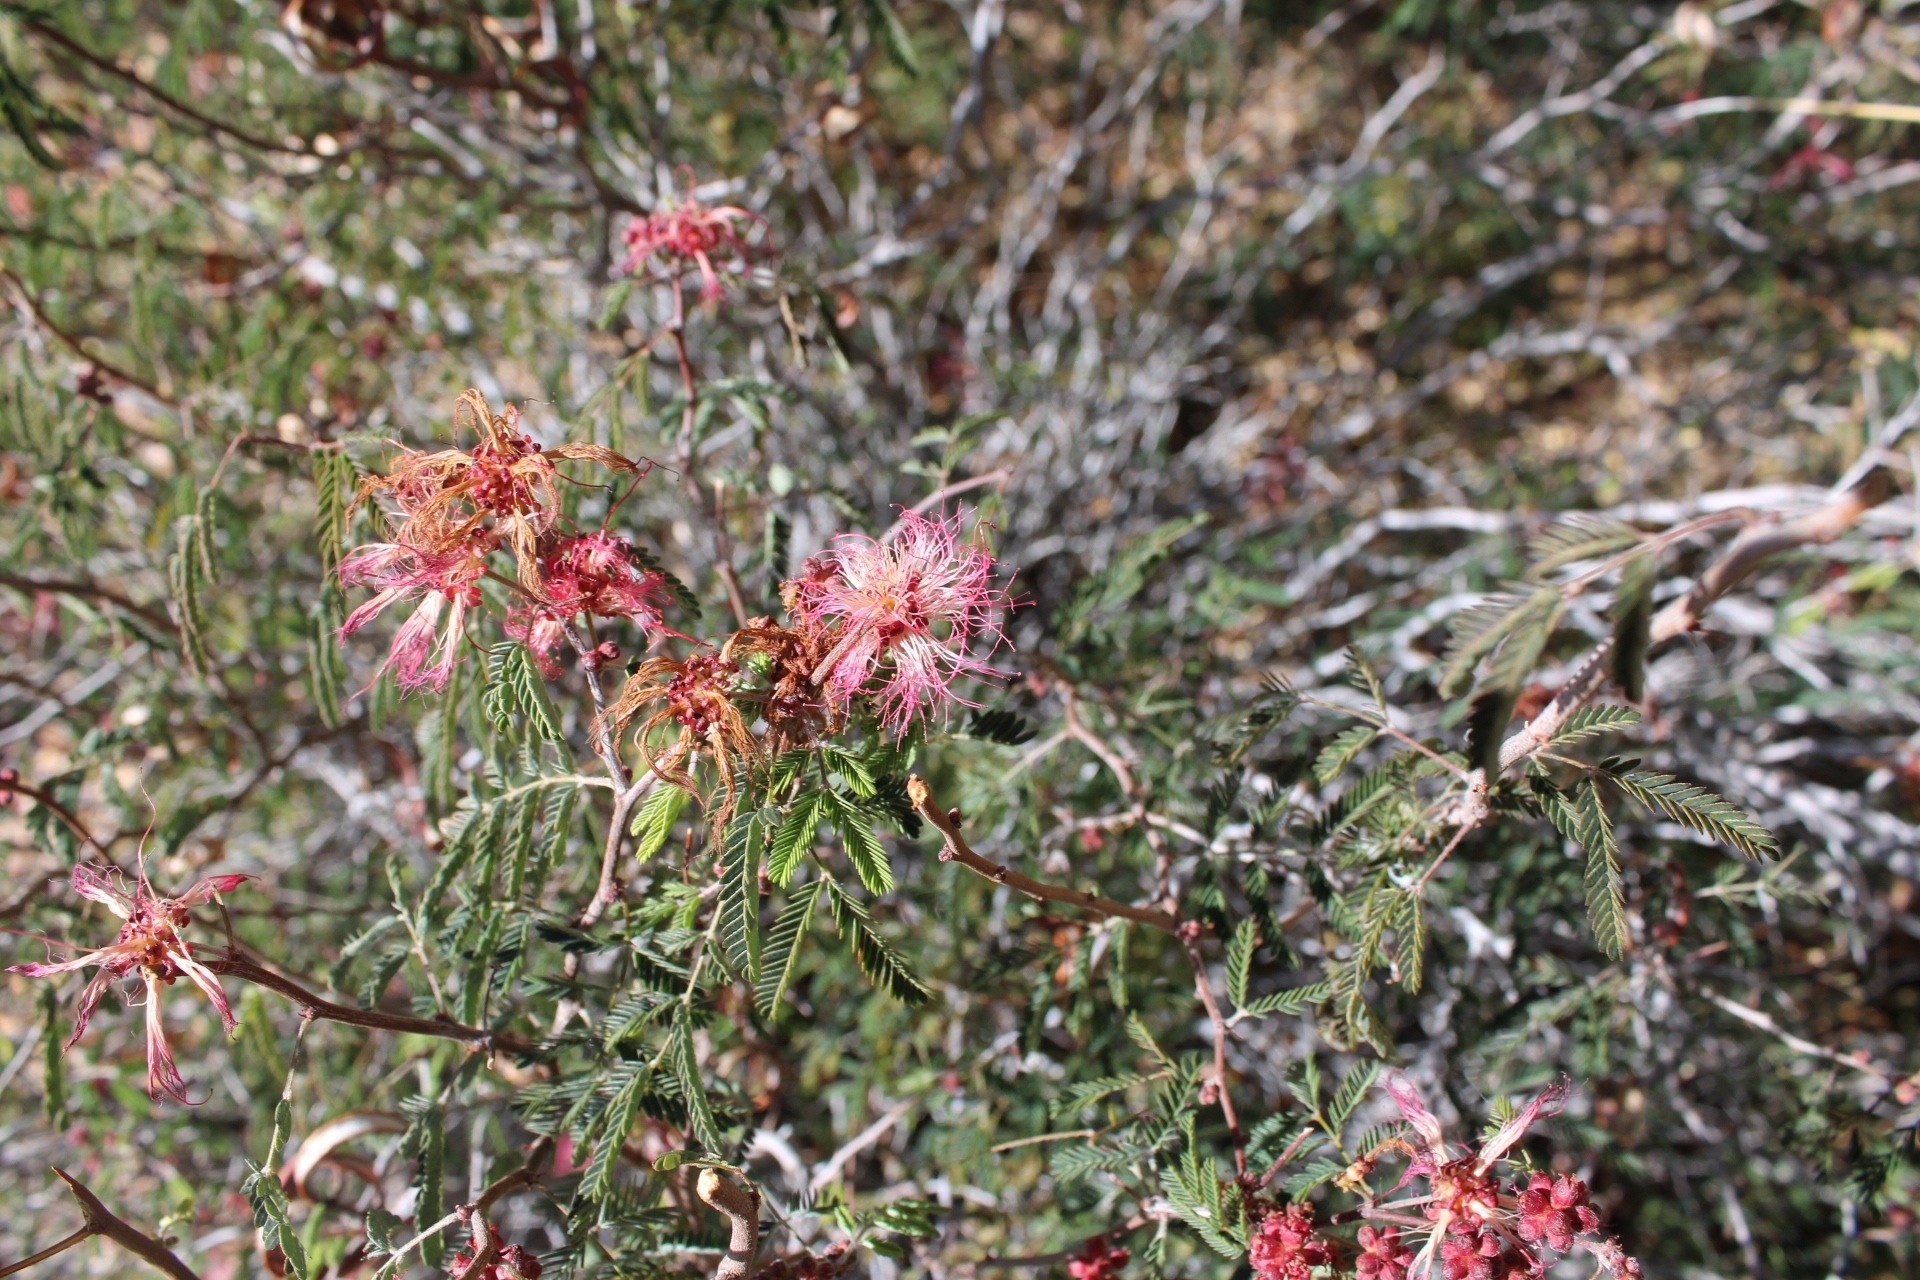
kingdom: Plantae
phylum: Tracheophyta
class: Magnoliopsida
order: Fabales
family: Fabaceae
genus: Calliandra
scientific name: Calliandra eriophylla
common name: Fairy-duster
